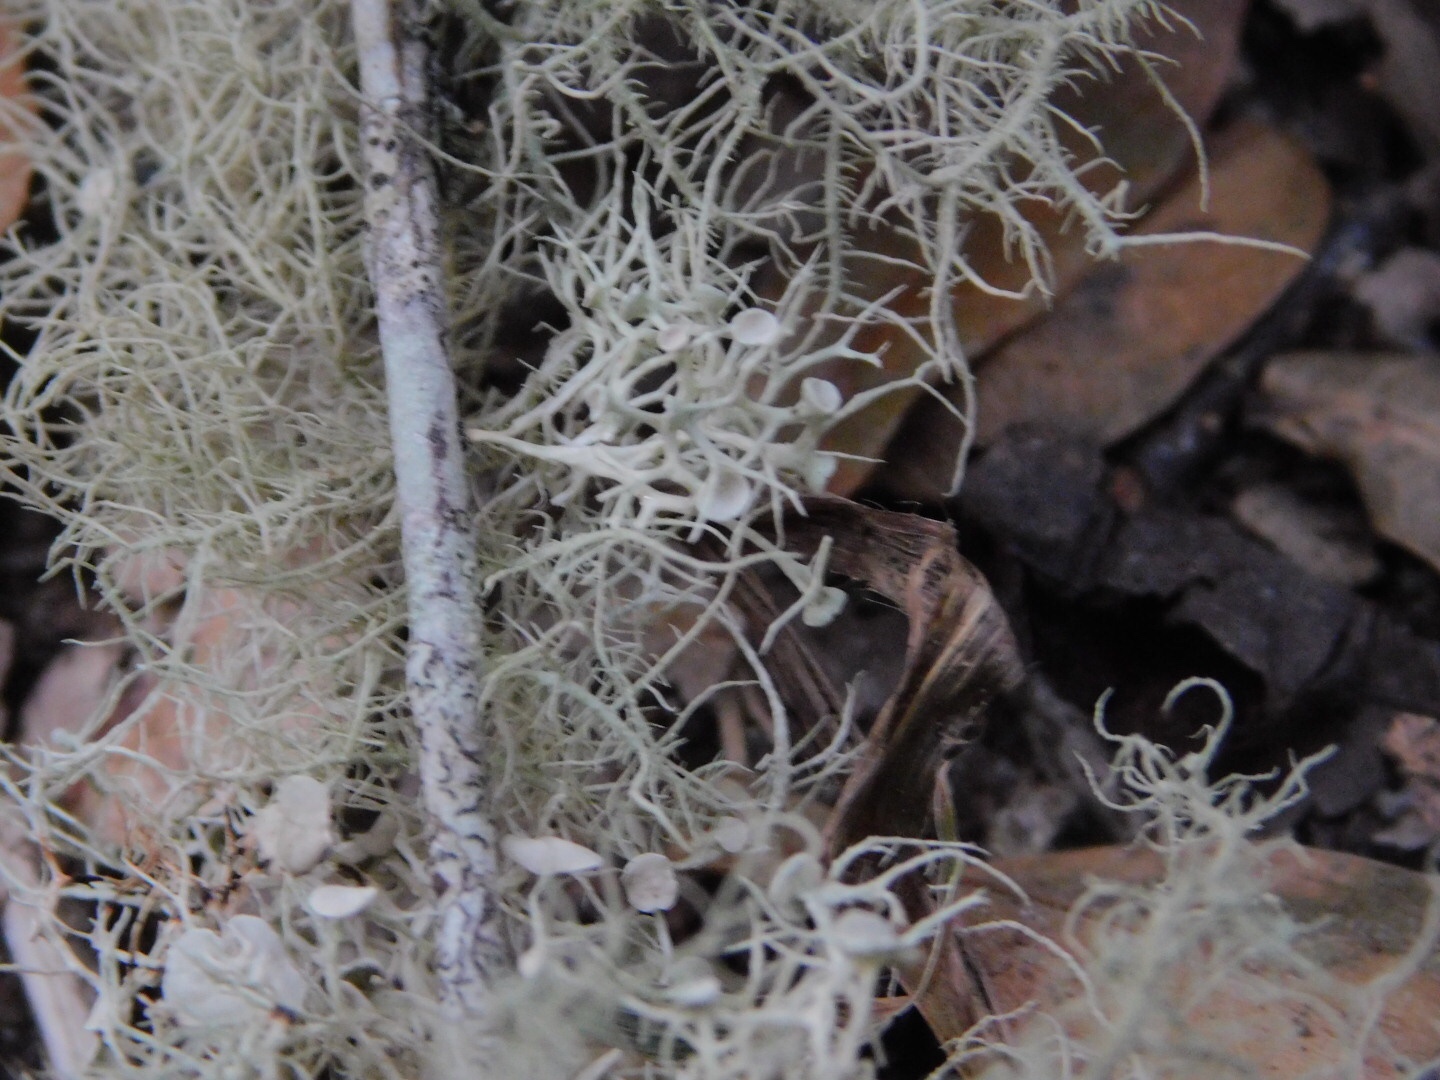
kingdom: Fungi
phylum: Ascomycota
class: Lecanoromycetes
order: Lecanorales
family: Parmeliaceae
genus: Usnea
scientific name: Usnea strigosa
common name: Bushy beard lichen
